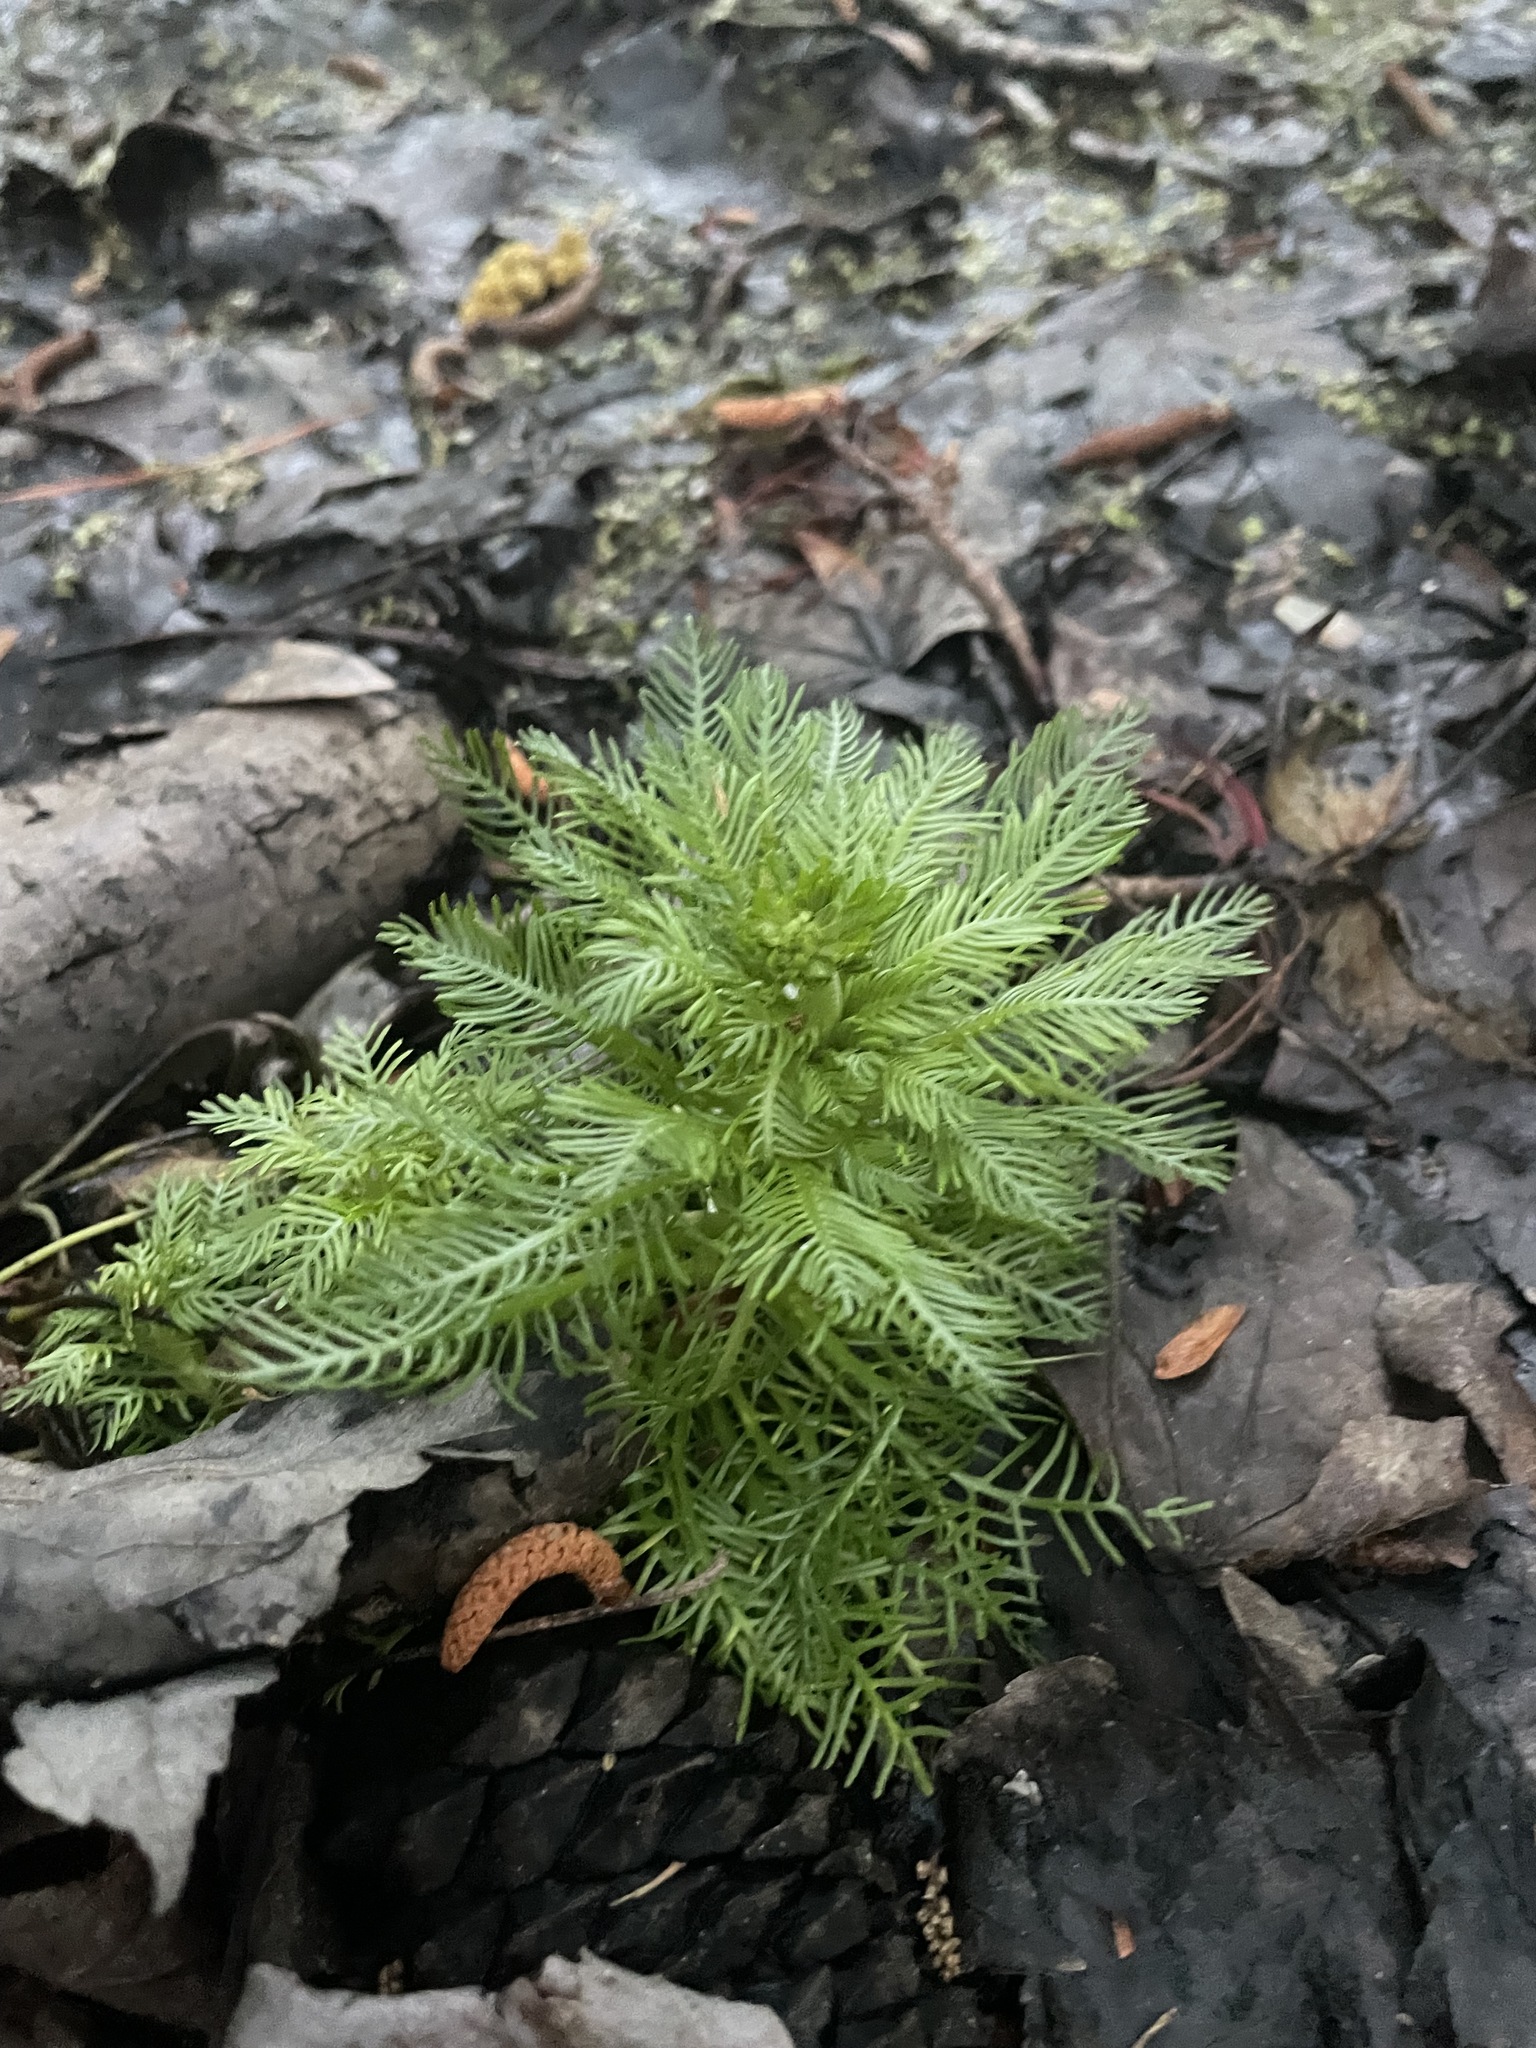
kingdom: Plantae
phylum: Tracheophyta
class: Magnoliopsida
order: Ericales
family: Primulaceae
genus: Hottonia
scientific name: Hottonia inflata
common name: American featherfoil
